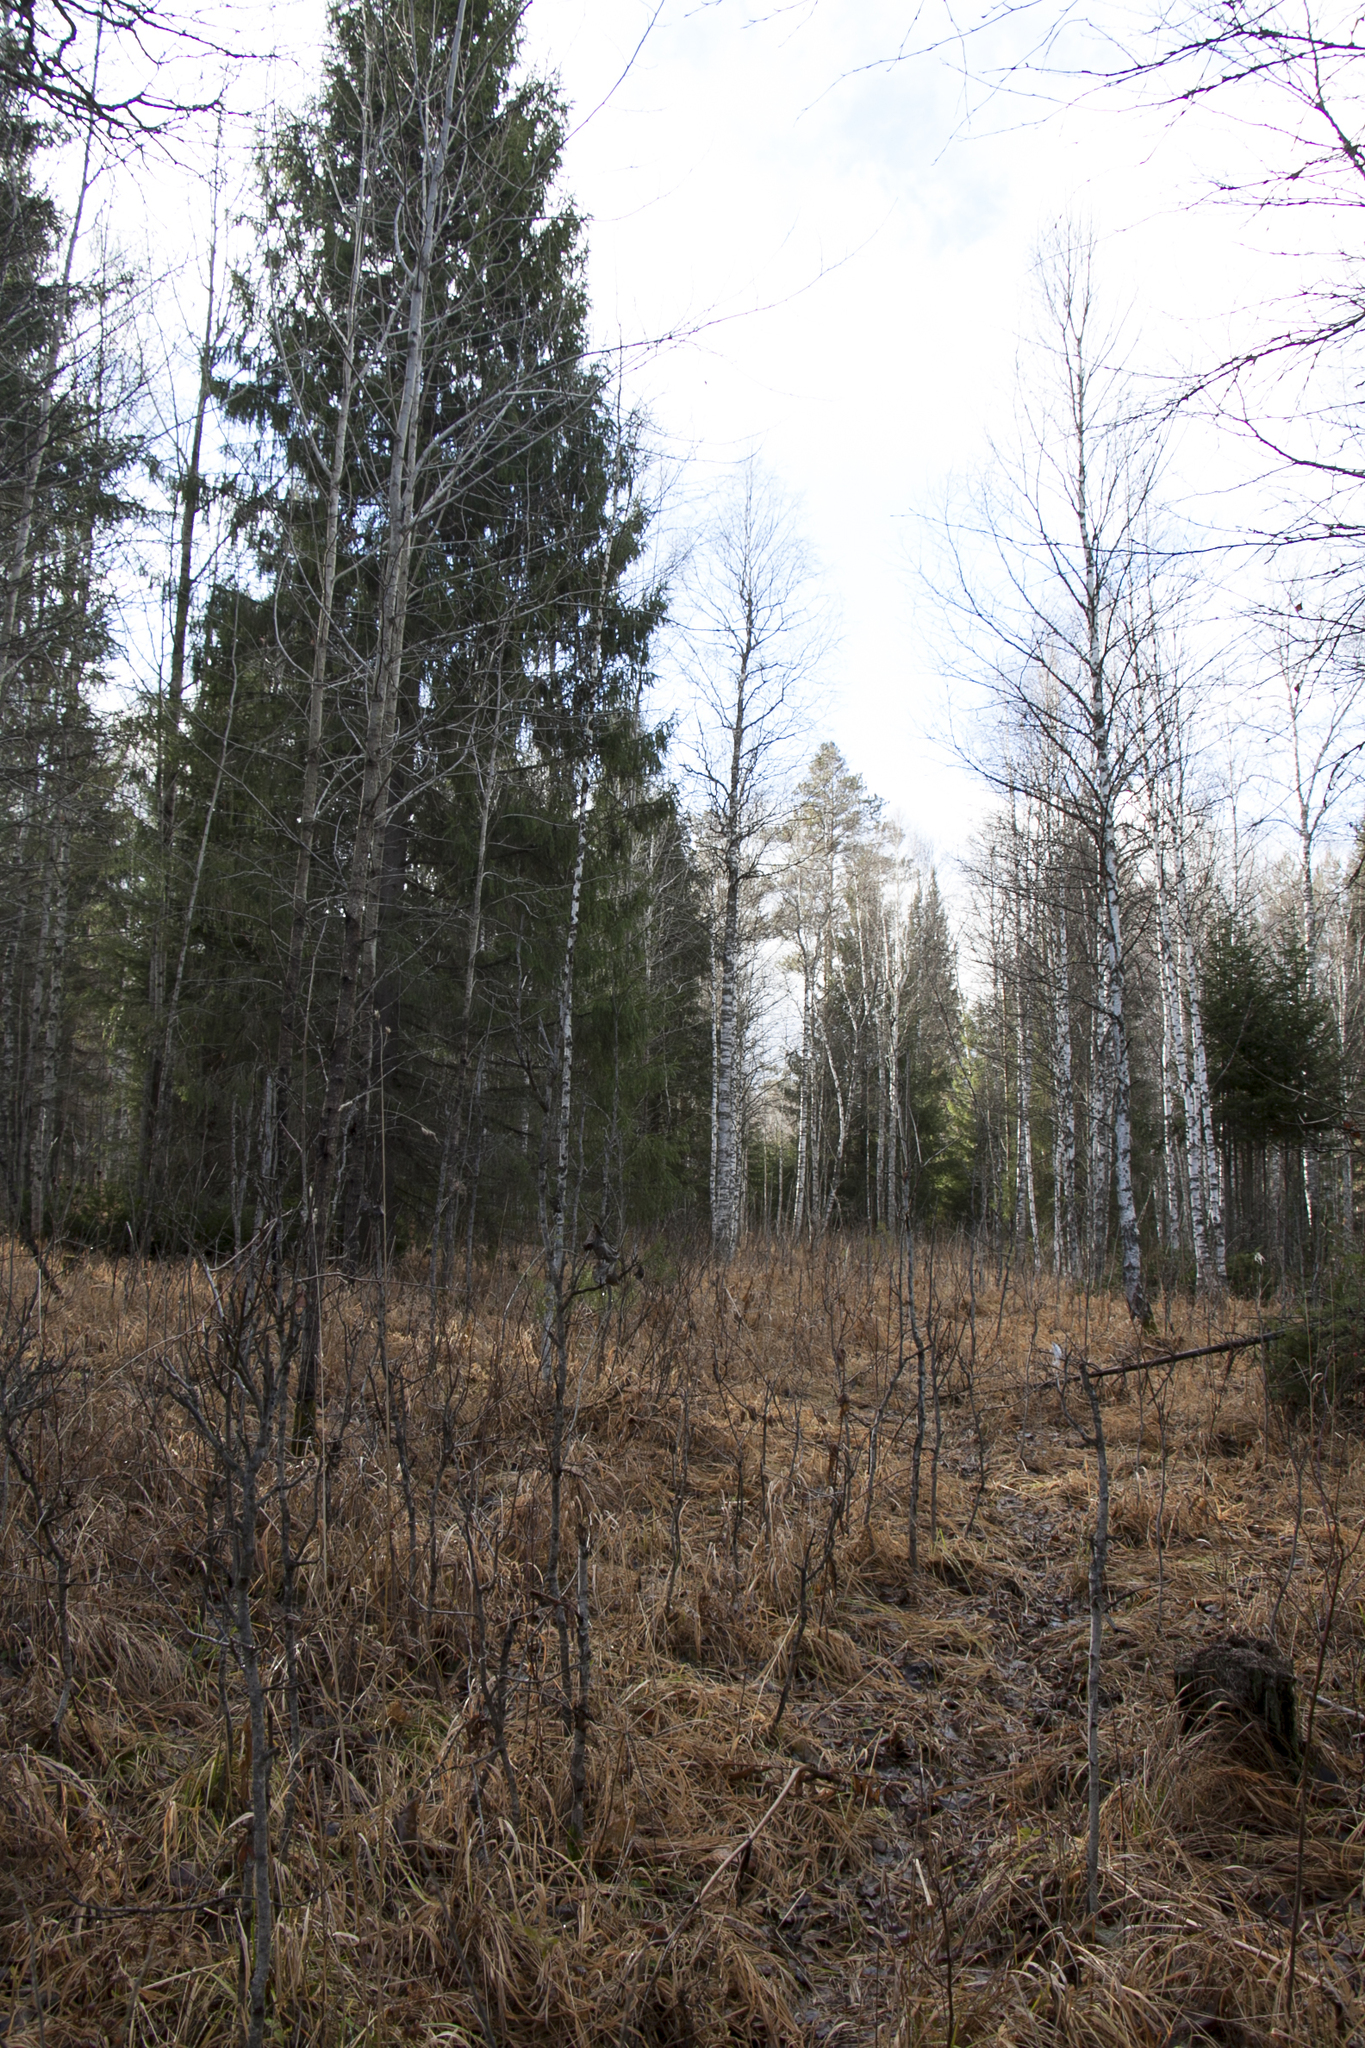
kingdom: Plantae
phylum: Tracheophyta
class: Pinopsida
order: Pinales
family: Pinaceae
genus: Picea
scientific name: Picea obovata
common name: Siberian spruce
